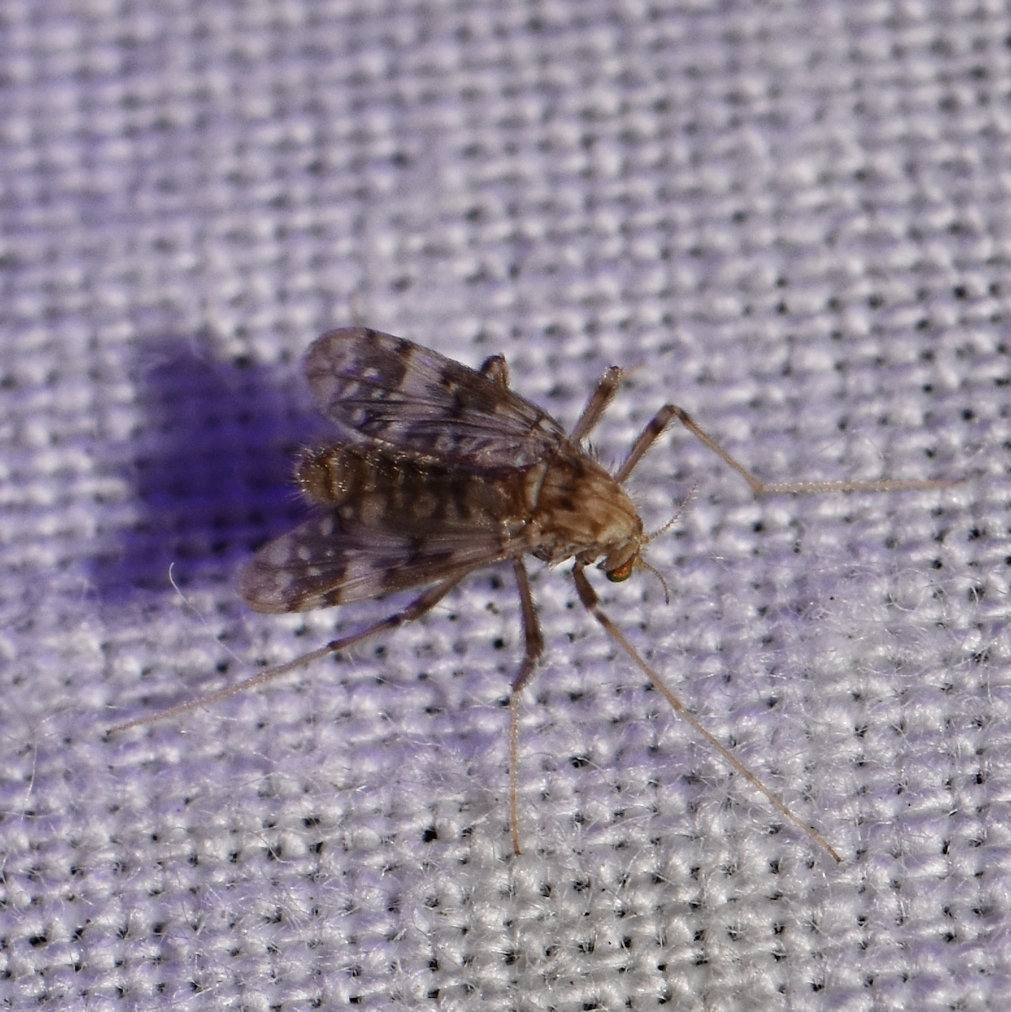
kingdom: Animalia
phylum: Arthropoda
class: Insecta
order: Diptera
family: Chironomidae
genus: Psectrotanypus
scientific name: Psectrotanypus dyari
